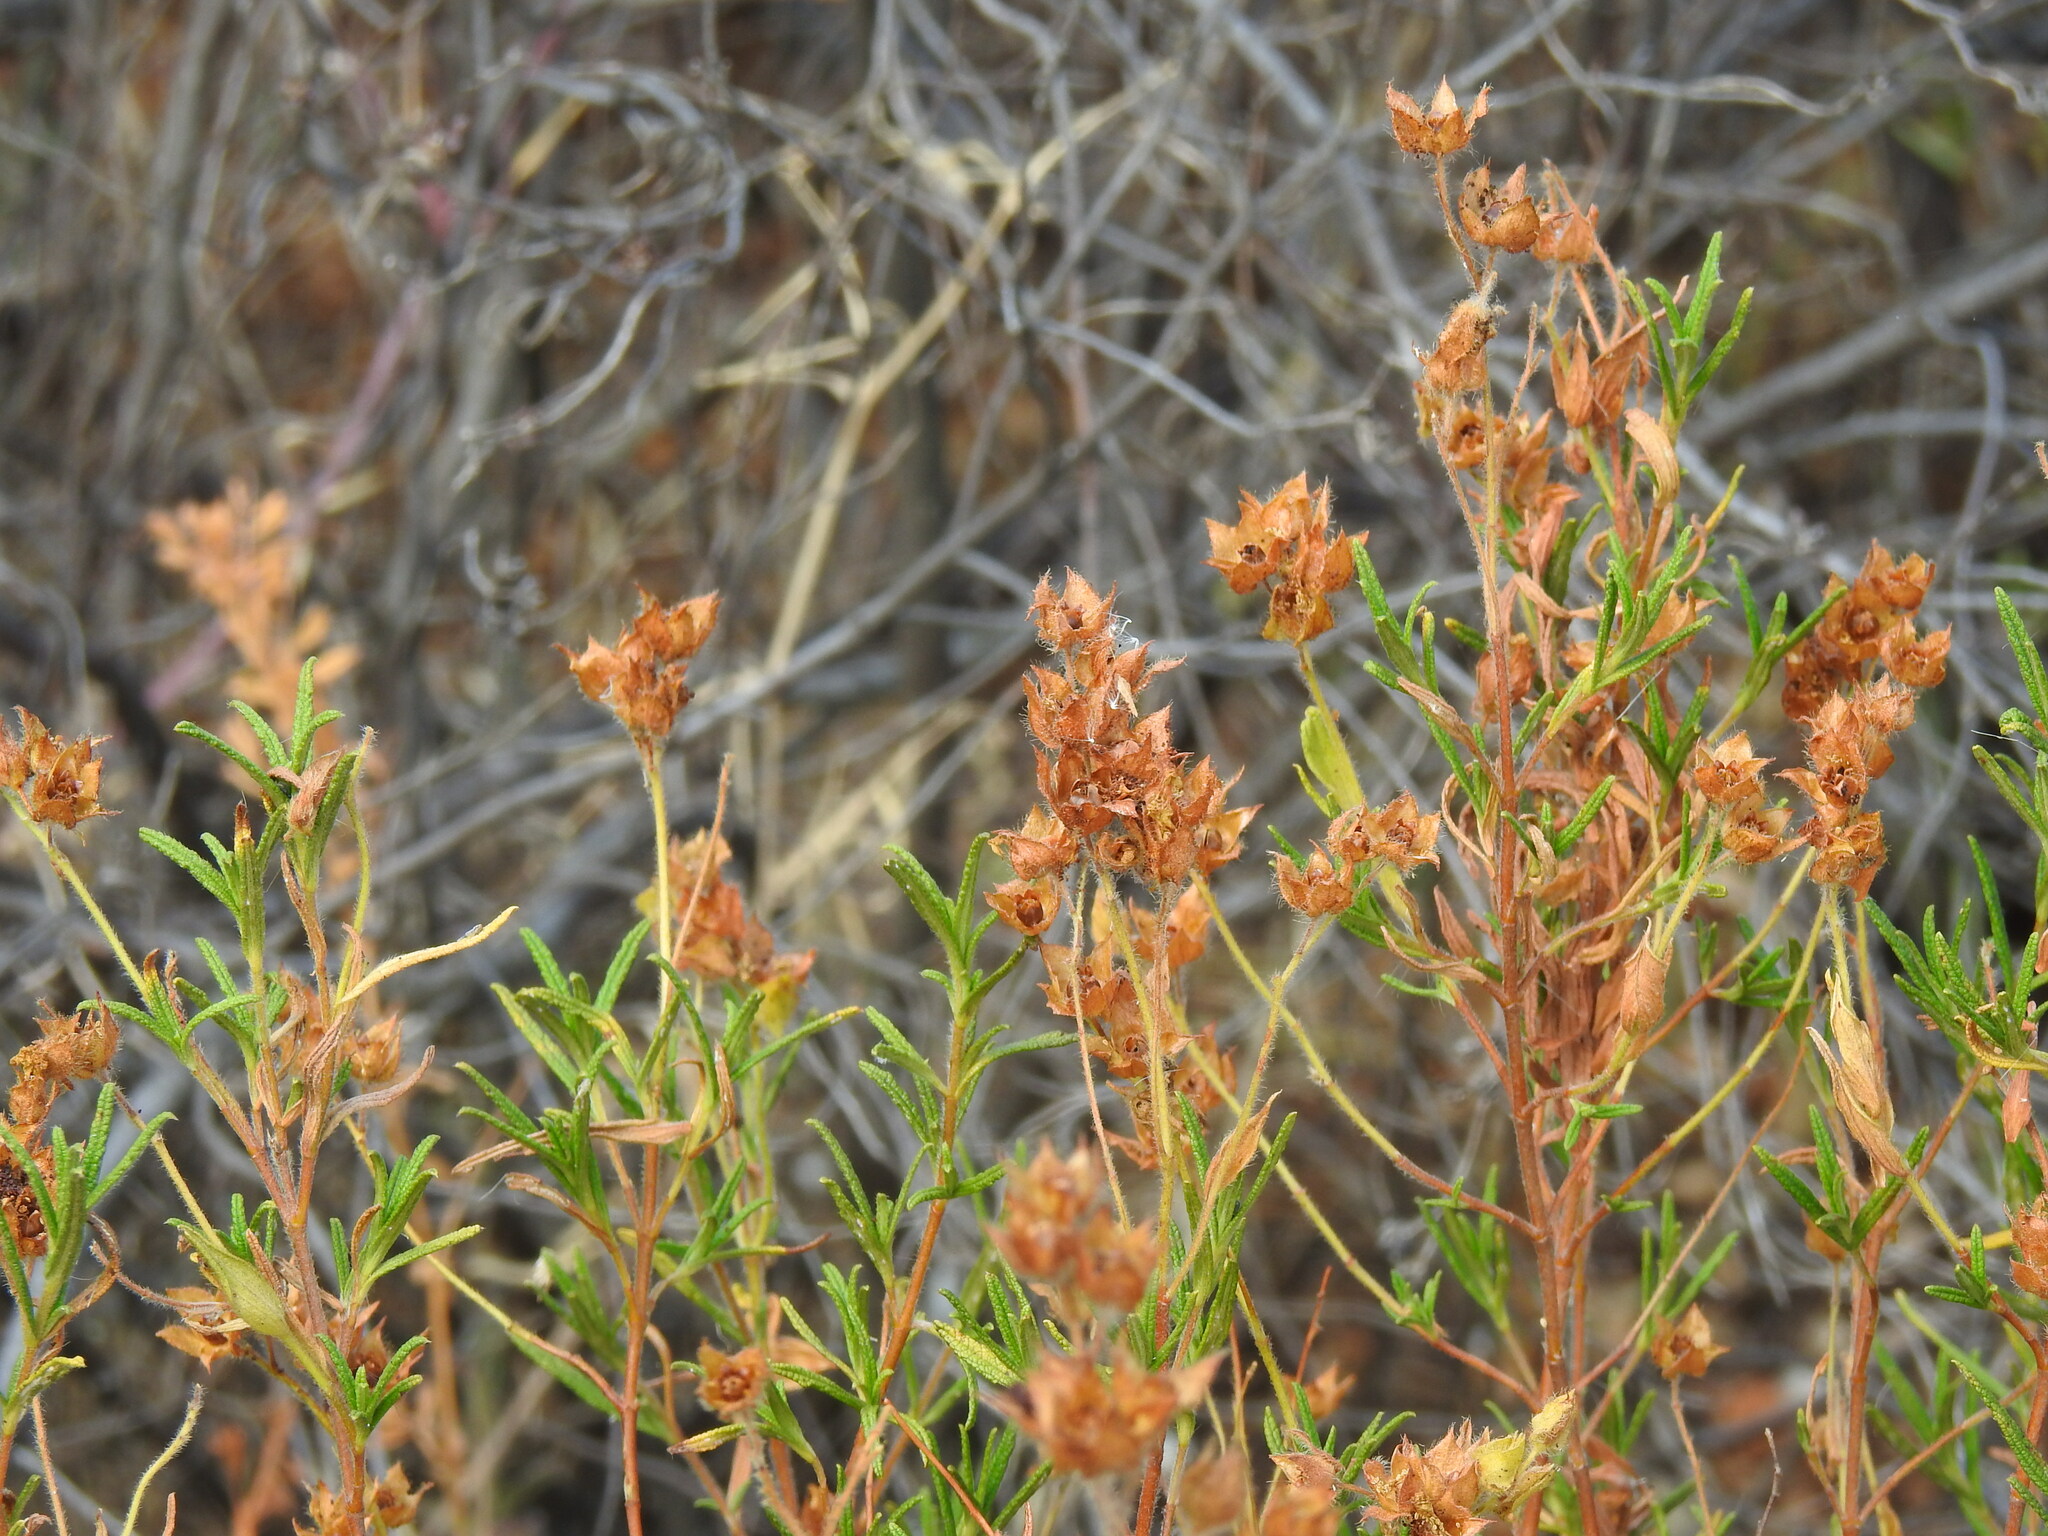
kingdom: Plantae
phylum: Tracheophyta
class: Magnoliopsida
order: Malvales
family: Cistaceae
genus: Cistus
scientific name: Cistus monspeliensis
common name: Montpelier cistus
